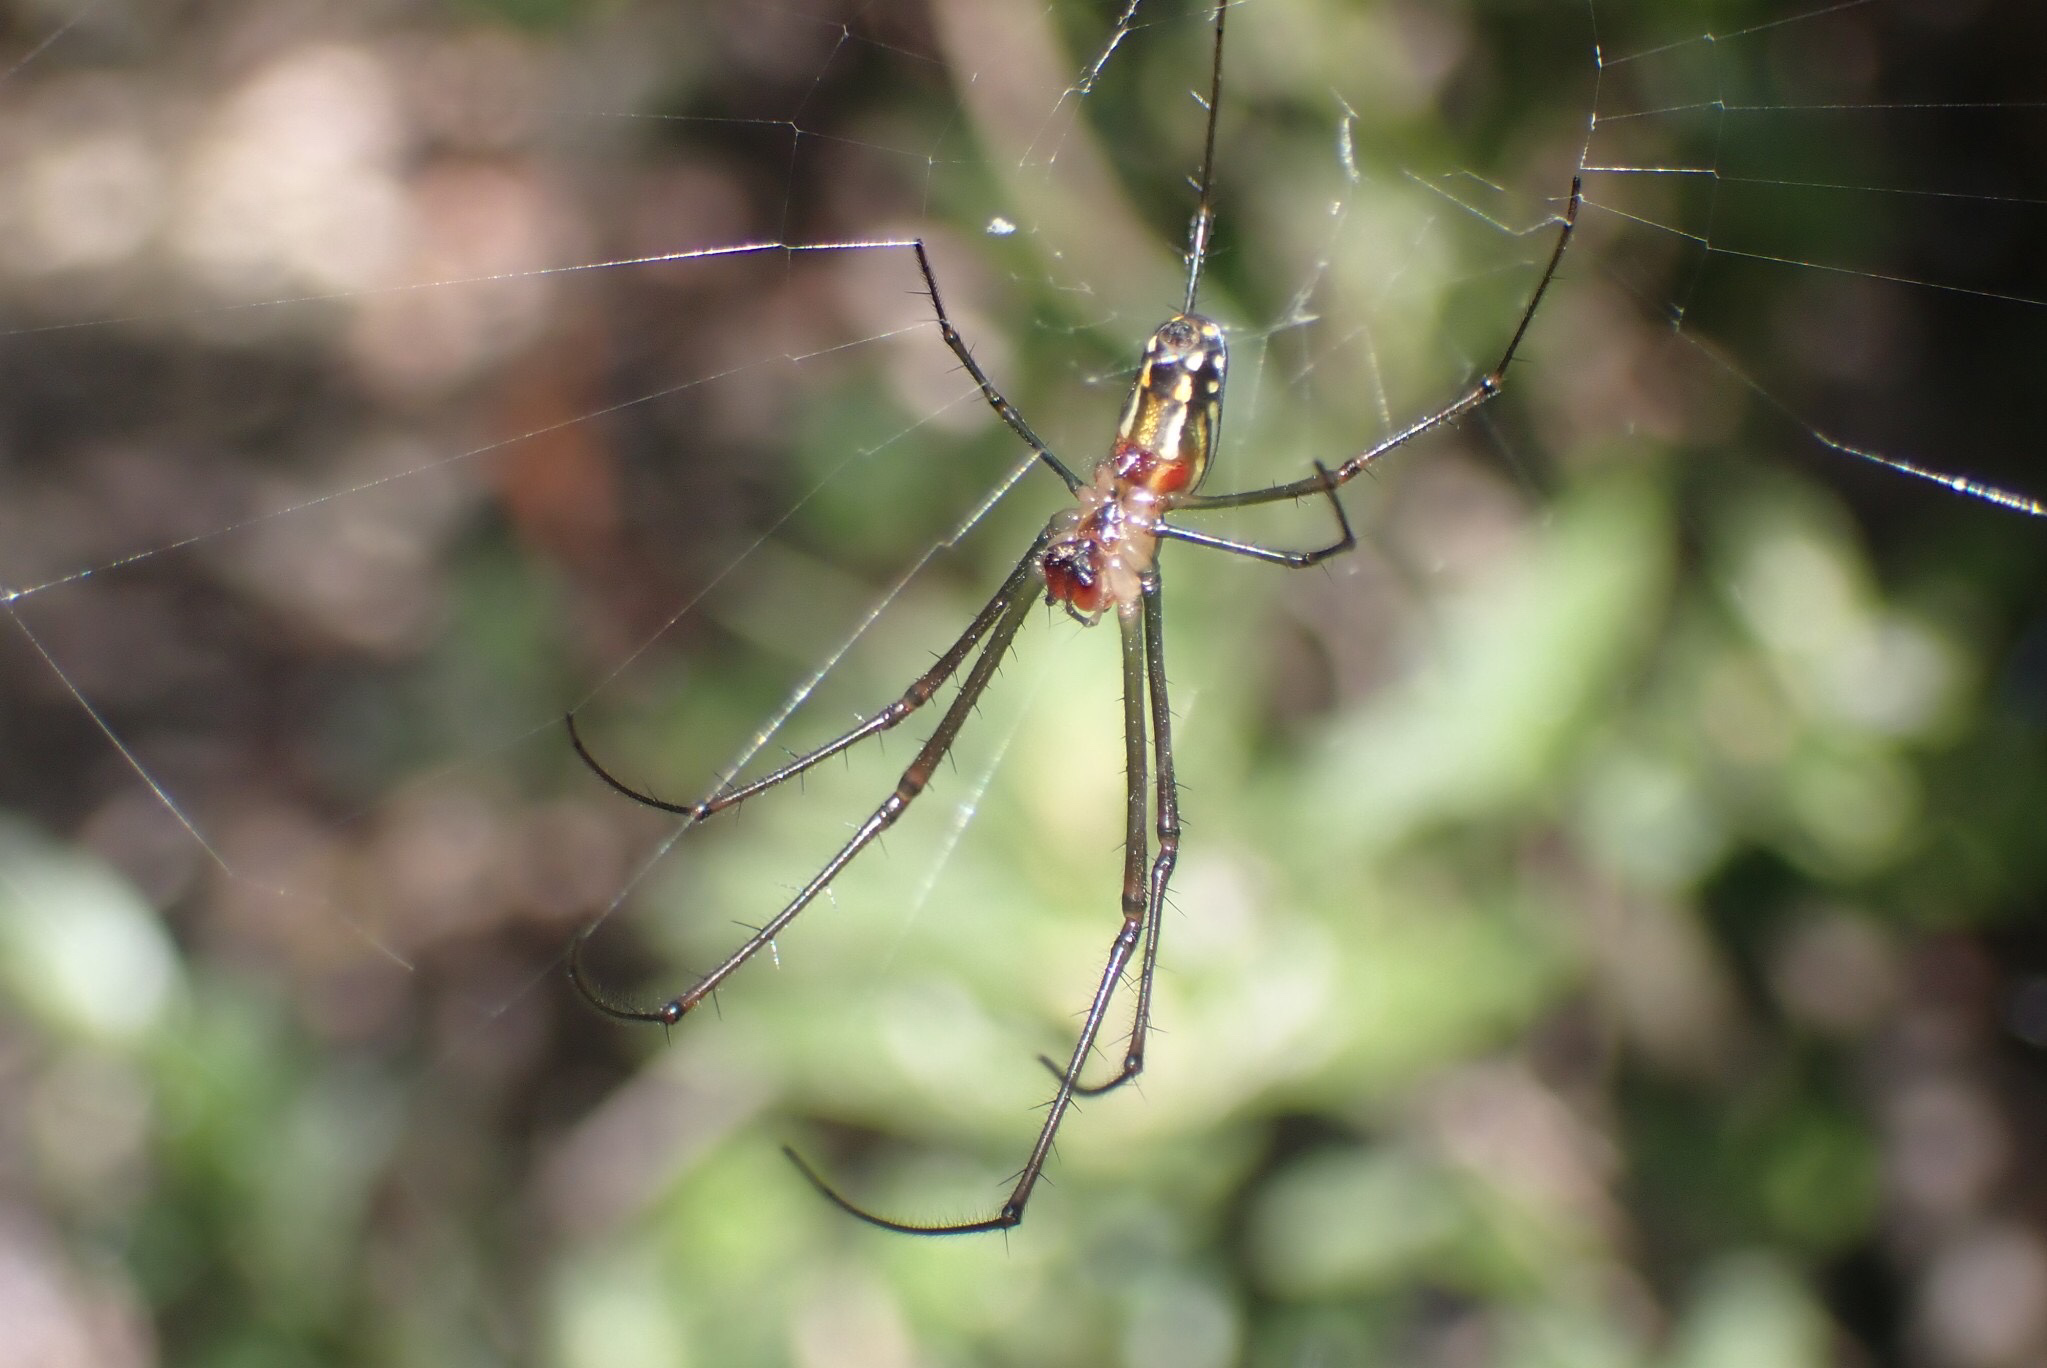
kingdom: Animalia
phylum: Arthropoda
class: Arachnida
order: Araneae
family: Tetragnathidae
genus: Leucauge
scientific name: Leucauge argyra
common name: Longjawed orb weavers
